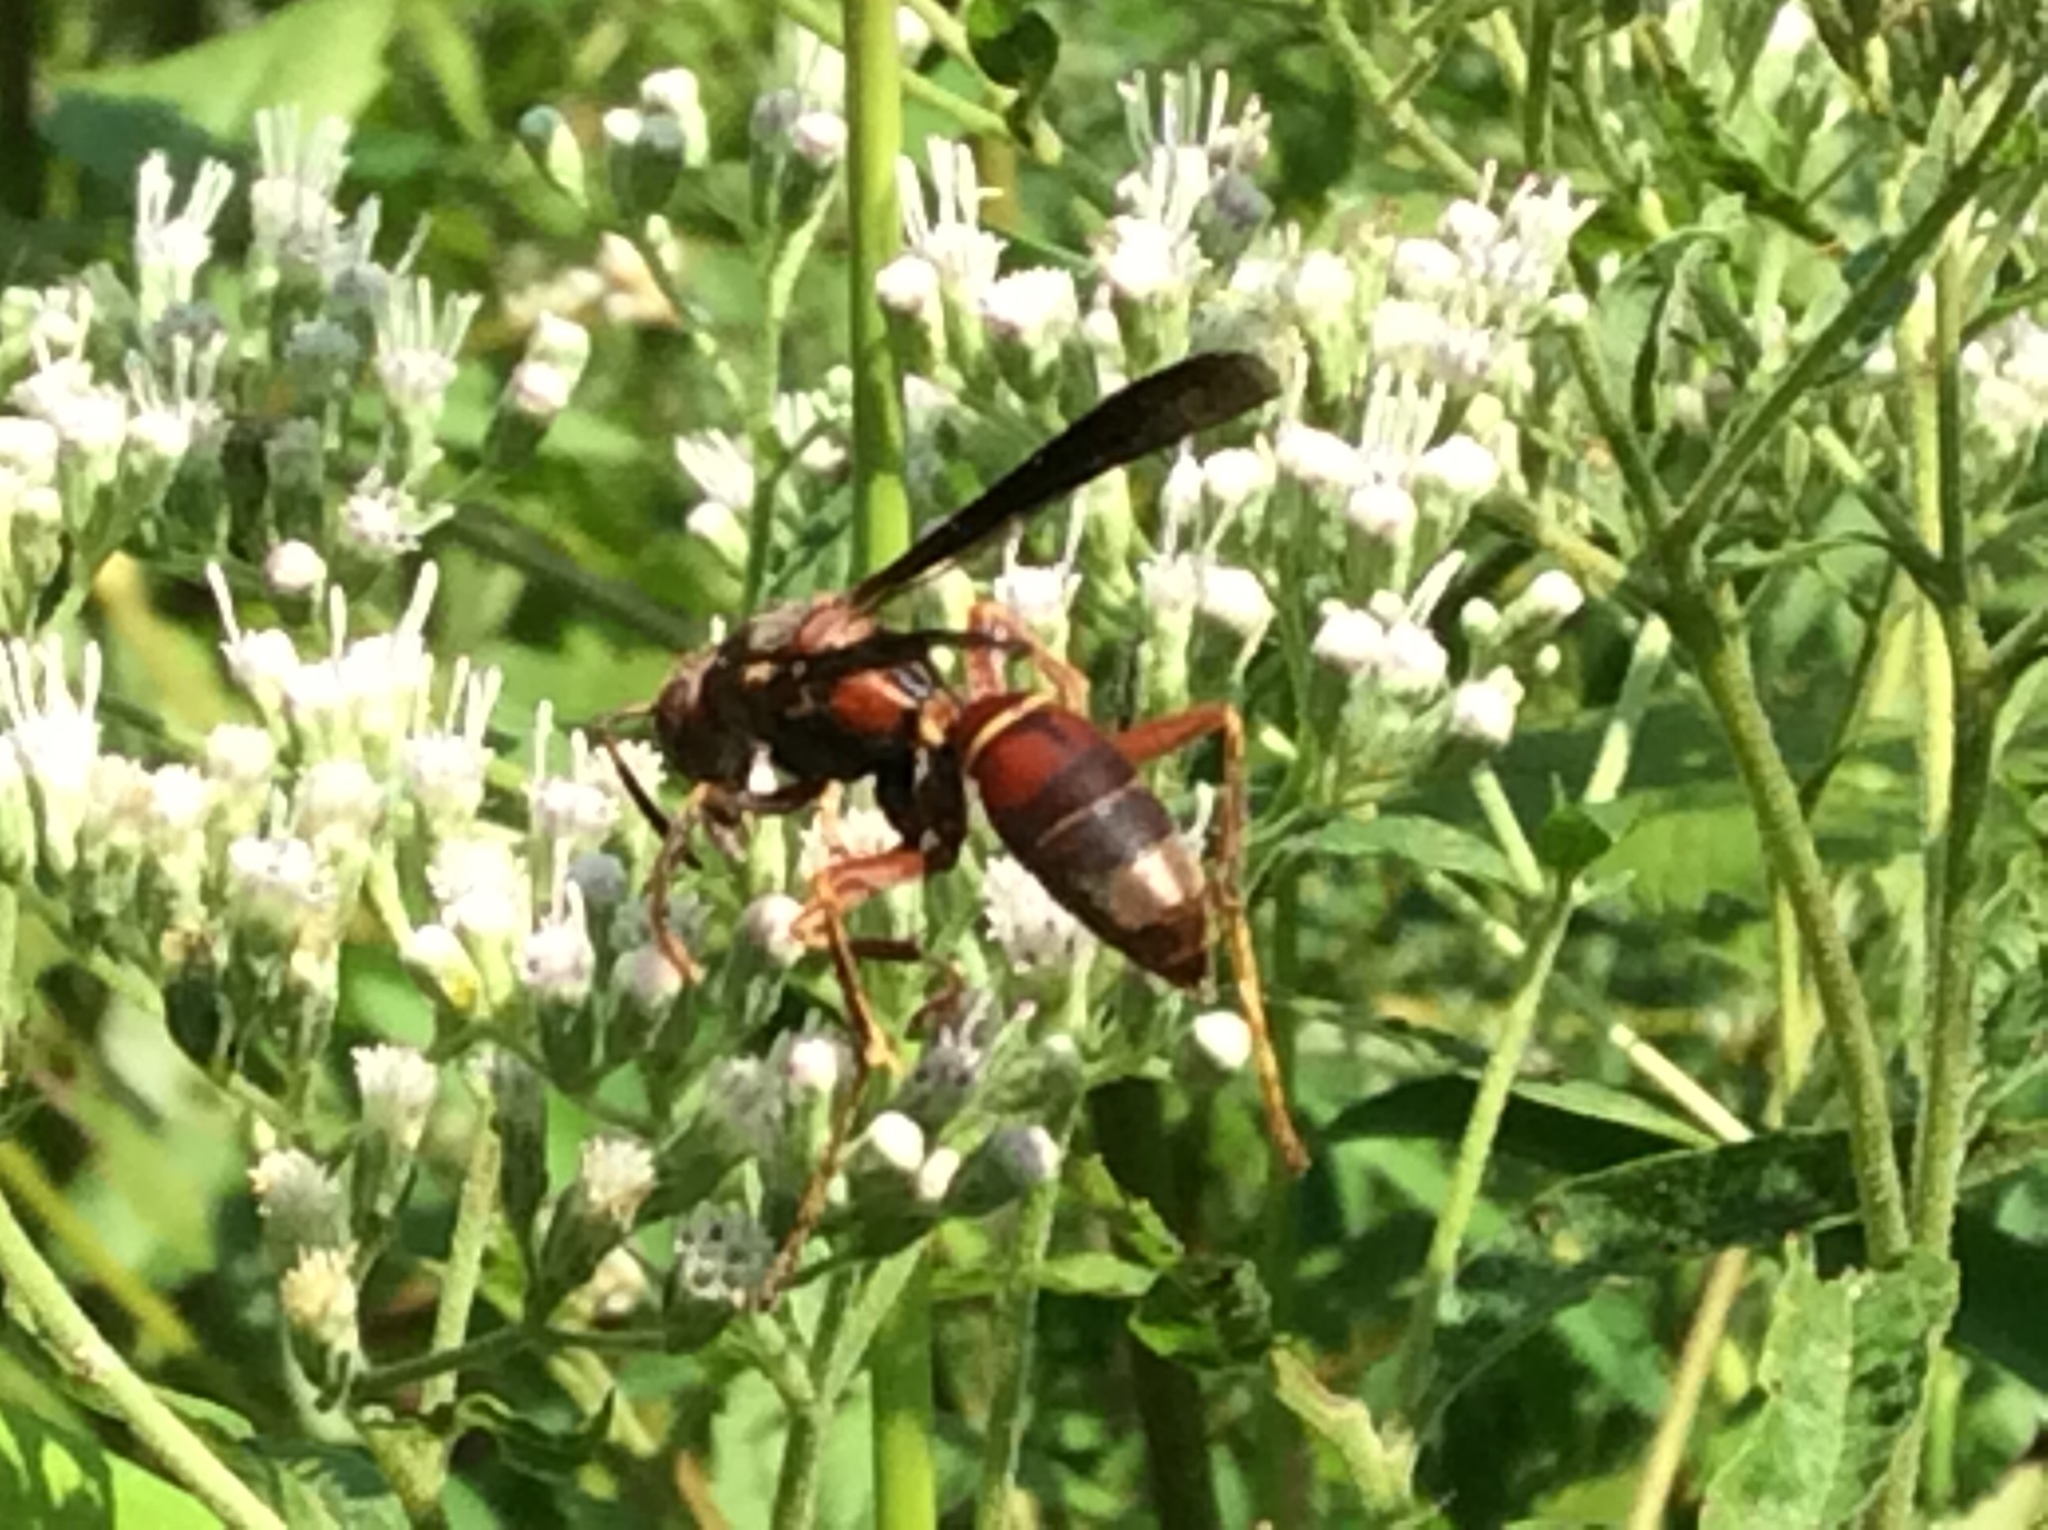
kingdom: Animalia
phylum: Arthropoda
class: Insecta
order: Hymenoptera
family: Eumenidae
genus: Polistes
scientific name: Polistes fuscatus
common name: Dark paper wasp
